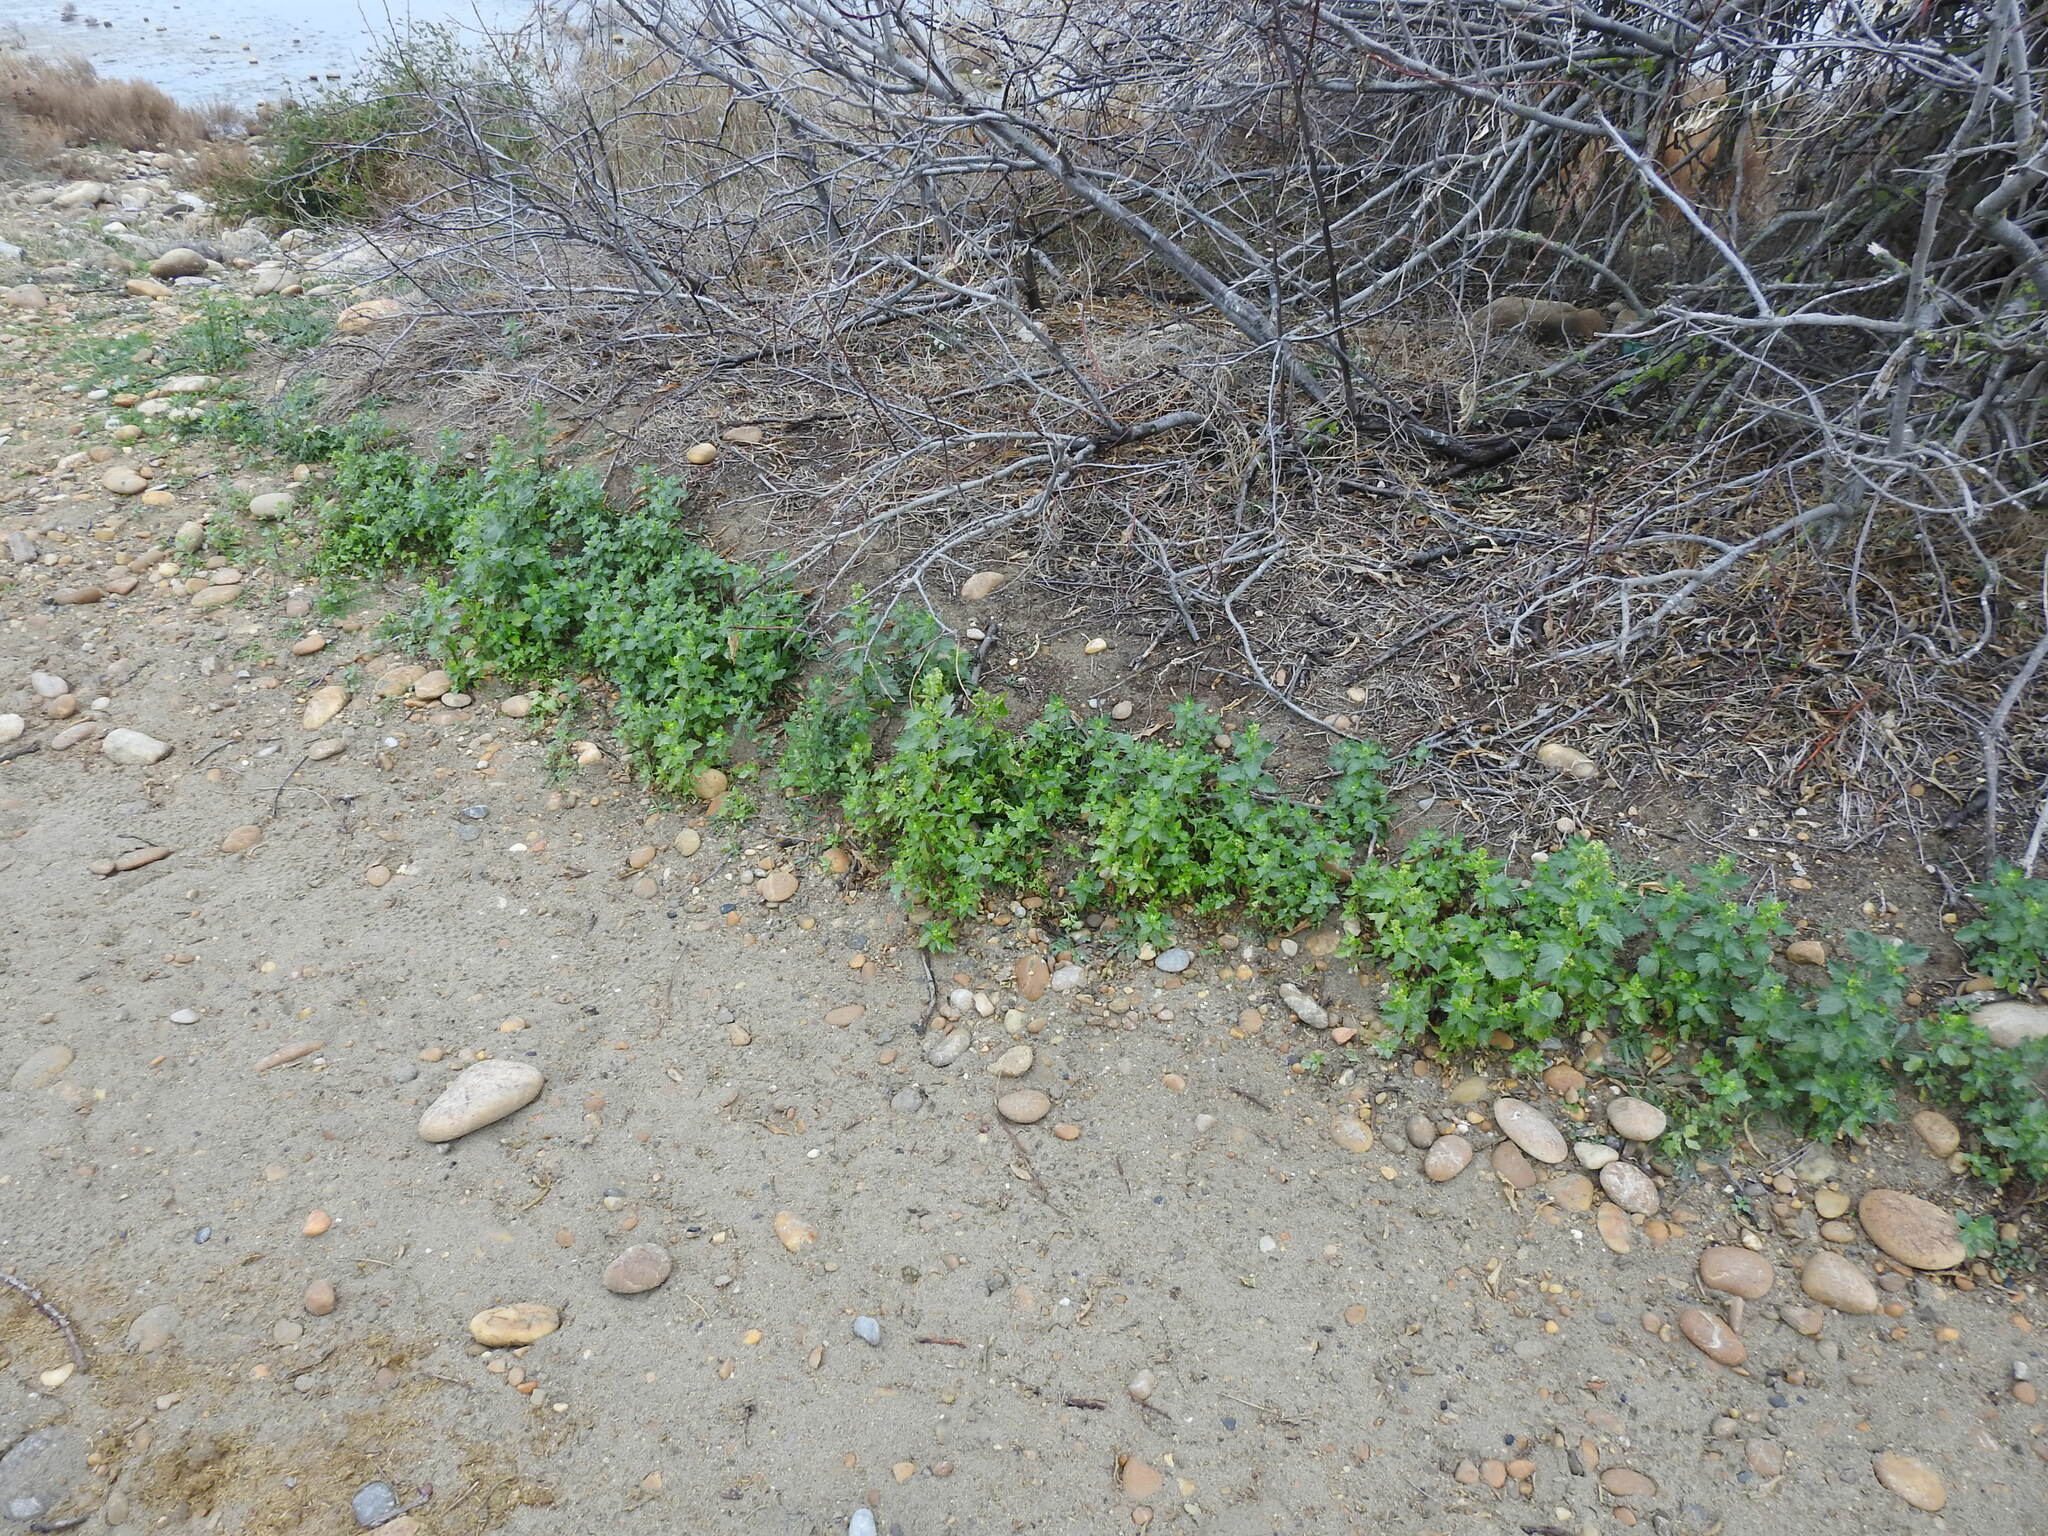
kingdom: Plantae
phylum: Tracheophyta
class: Magnoliopsida
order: Caryophyllales
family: Amaranthaceae
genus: Chenopodiastrum
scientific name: Chenopodiastrum murale
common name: Sowbane
